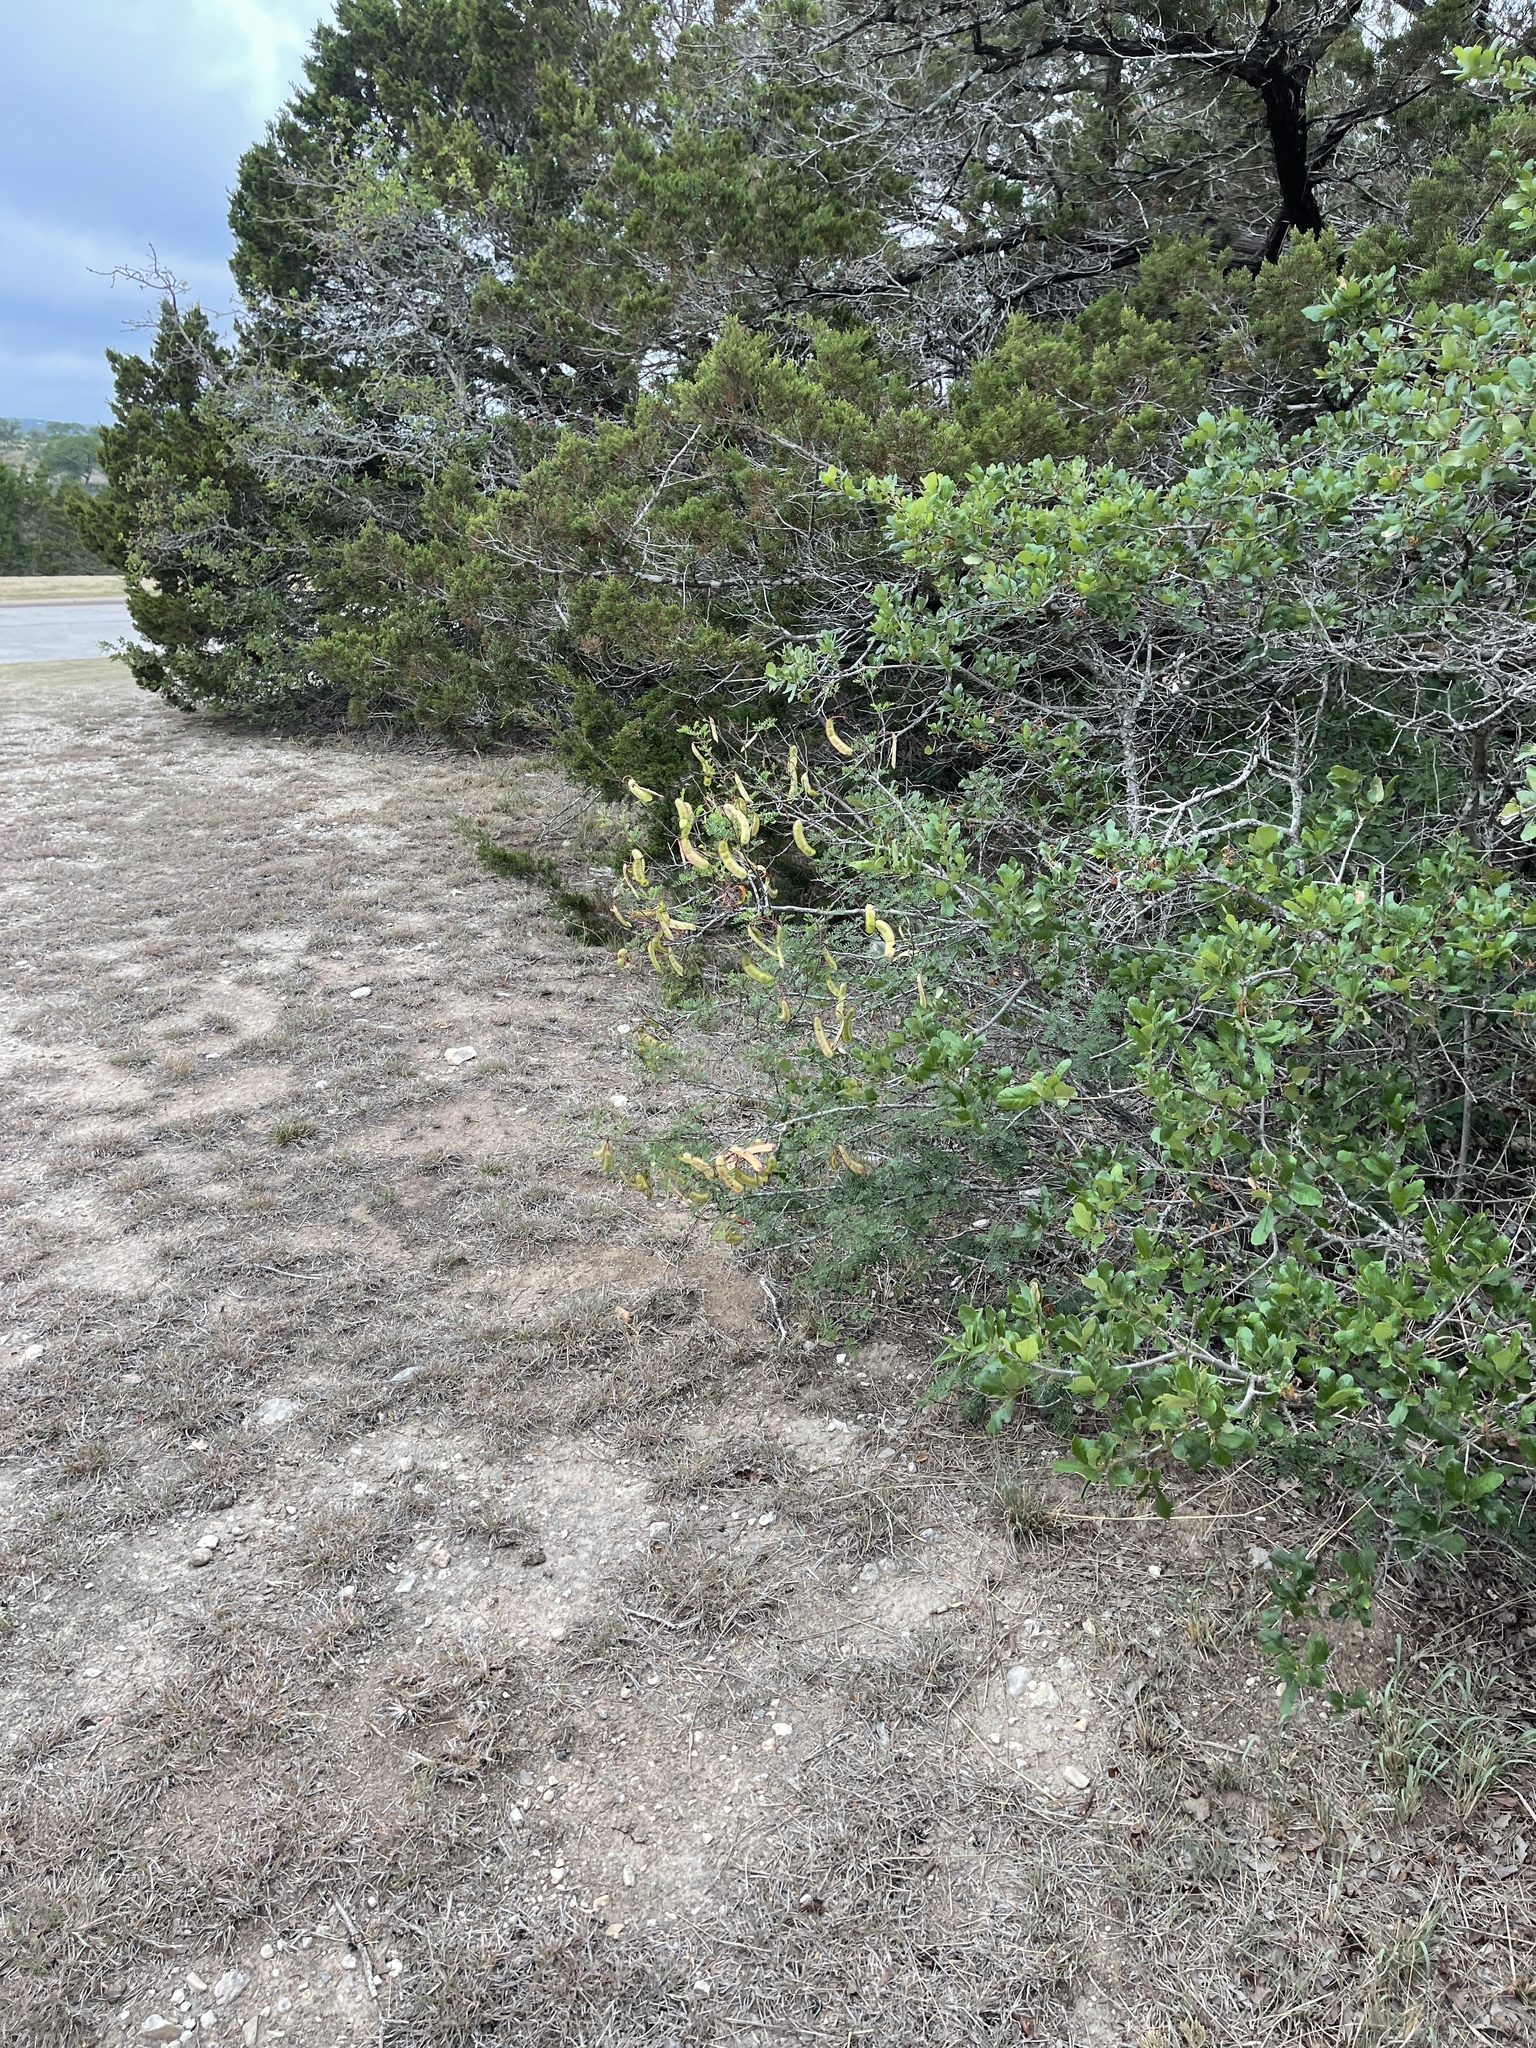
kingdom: Plantae
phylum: Tracheophyta
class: Magnoliopsida
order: Fabales
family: Fabaceae
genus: Senegalia
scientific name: Senegalia roemeriana
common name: Roemer's acacia
